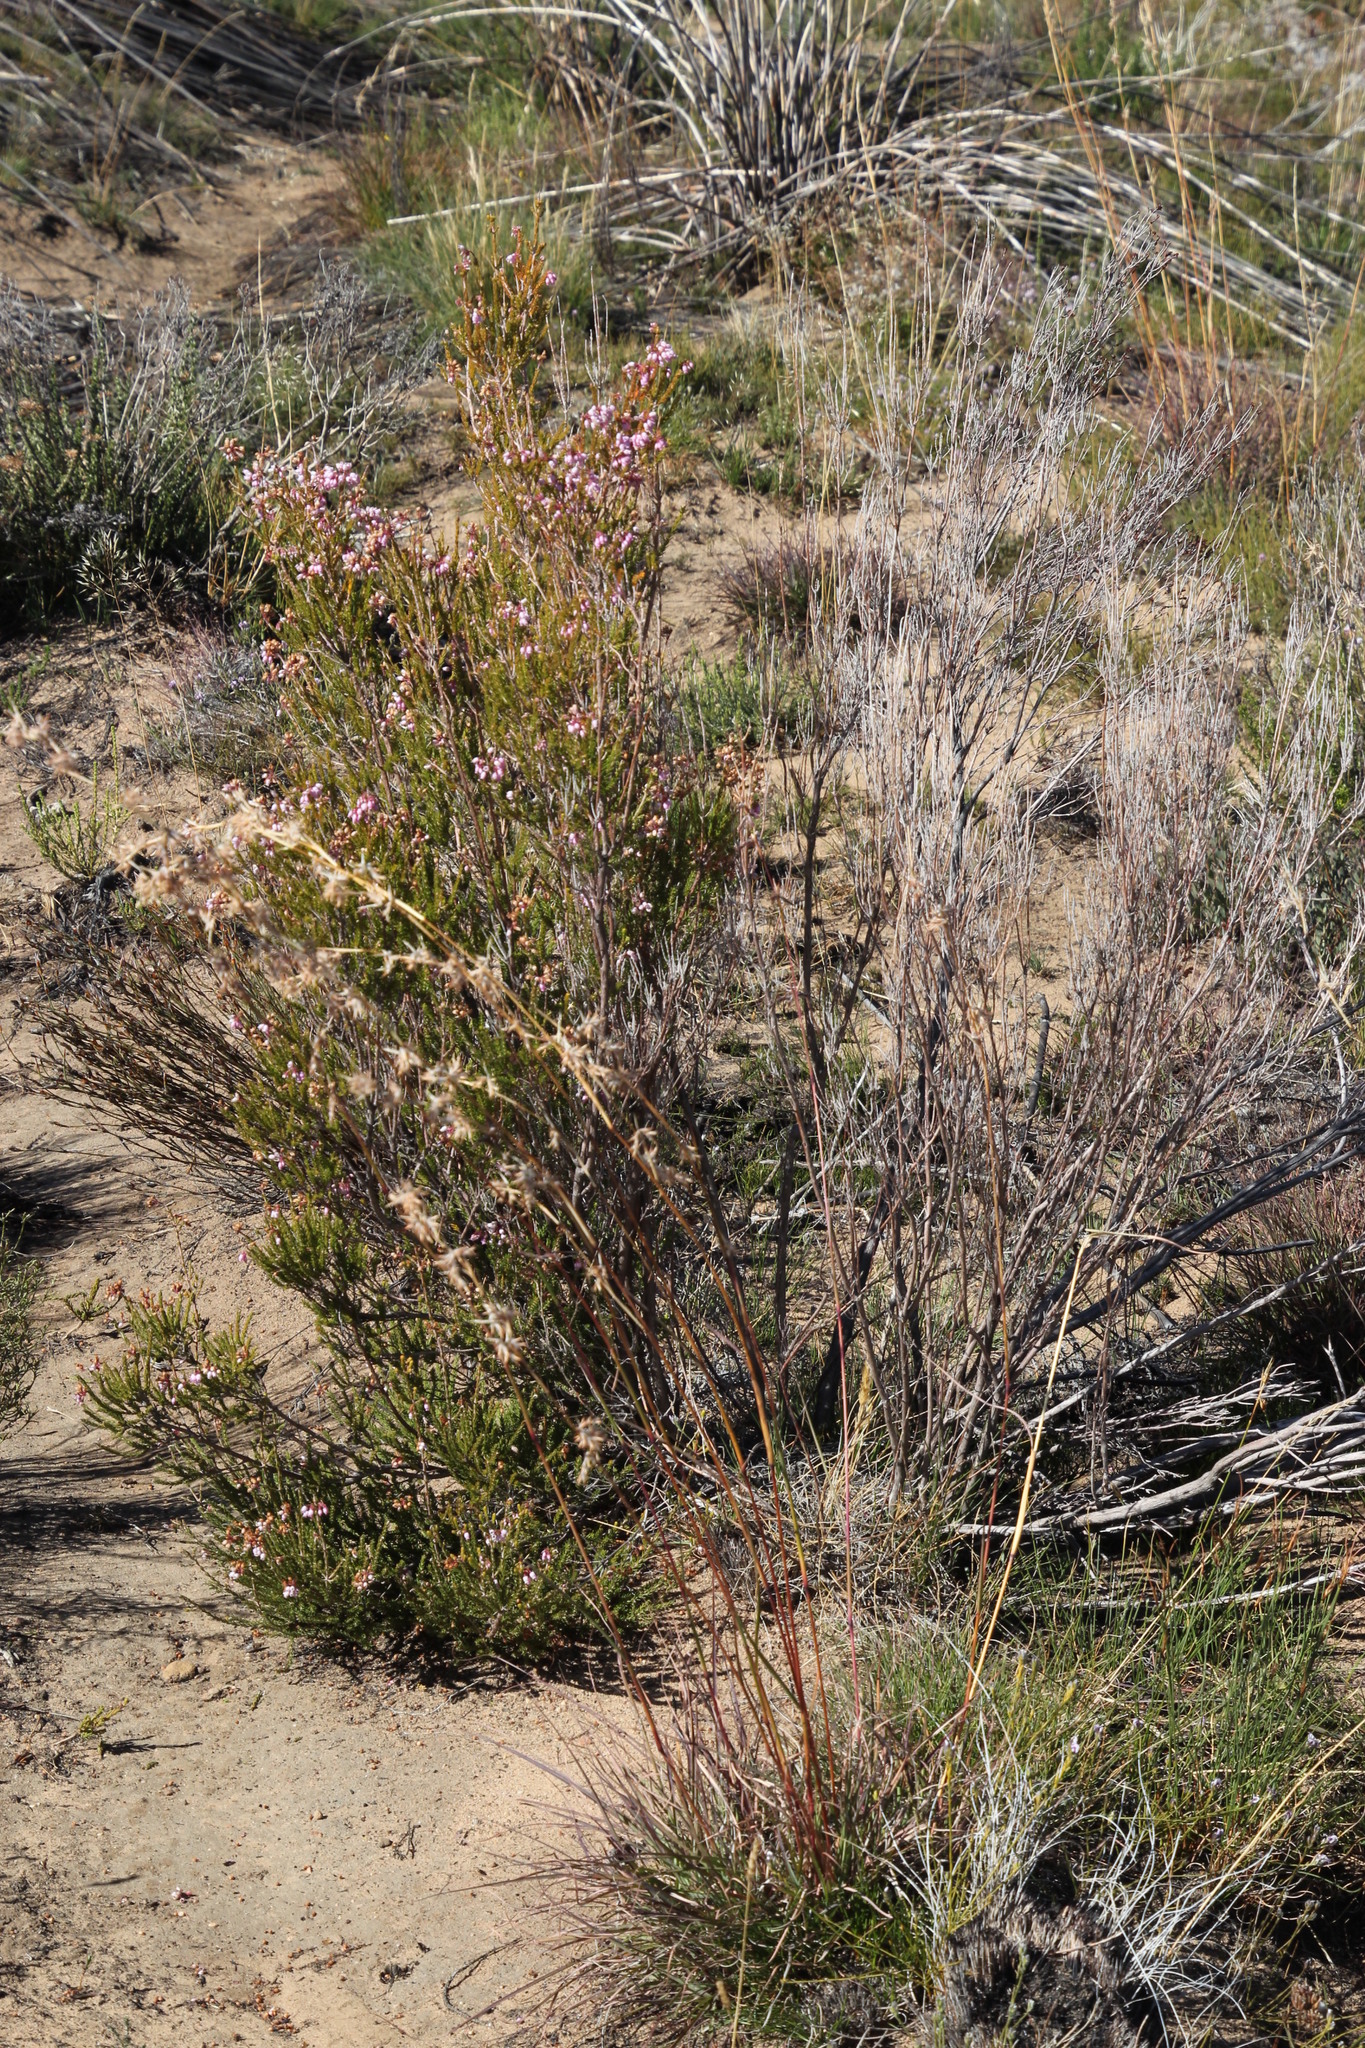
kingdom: Plantae
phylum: Tracheophyta
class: Magnoliopsida
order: Ericales
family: Ericaceae
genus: Erica
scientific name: Erica verecunda
